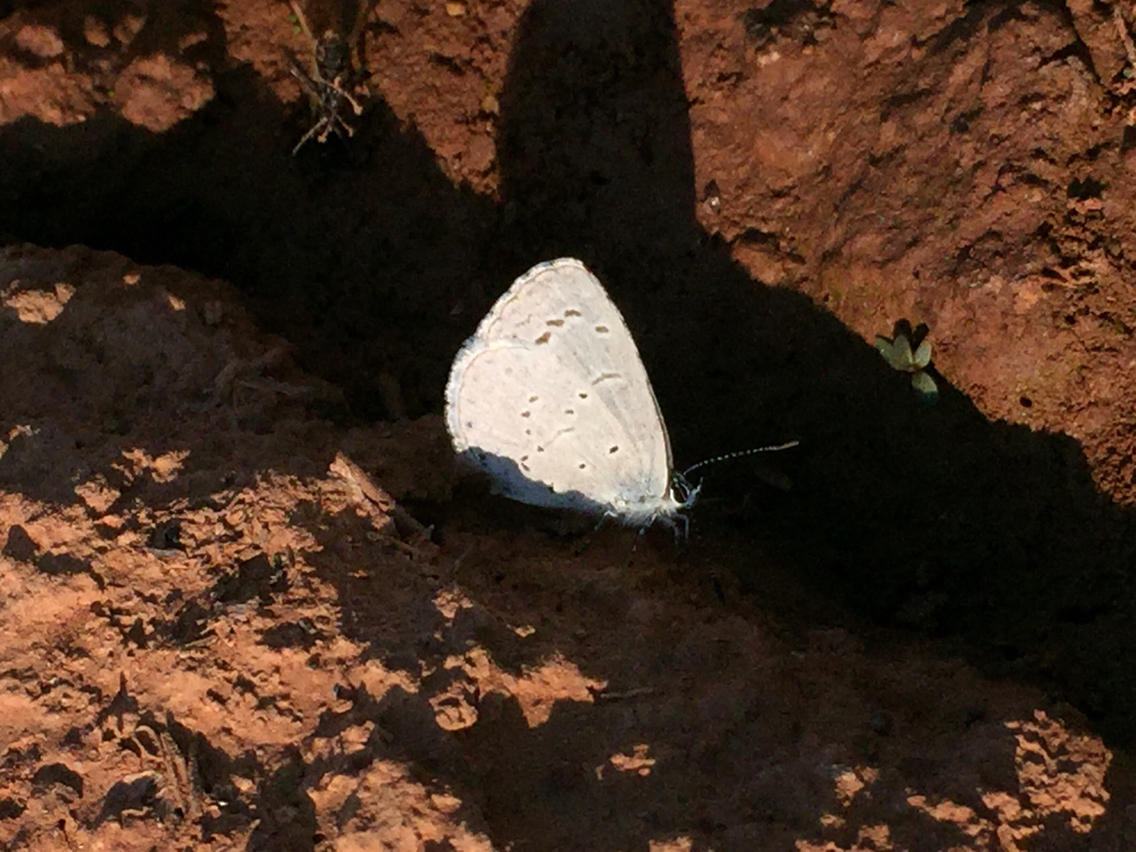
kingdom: Animalia
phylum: Arthropoda
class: Insecta
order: Lepidoptera
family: Lycaenidae
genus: Celastrina
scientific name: Celastrina argiolus
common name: Holly blue
